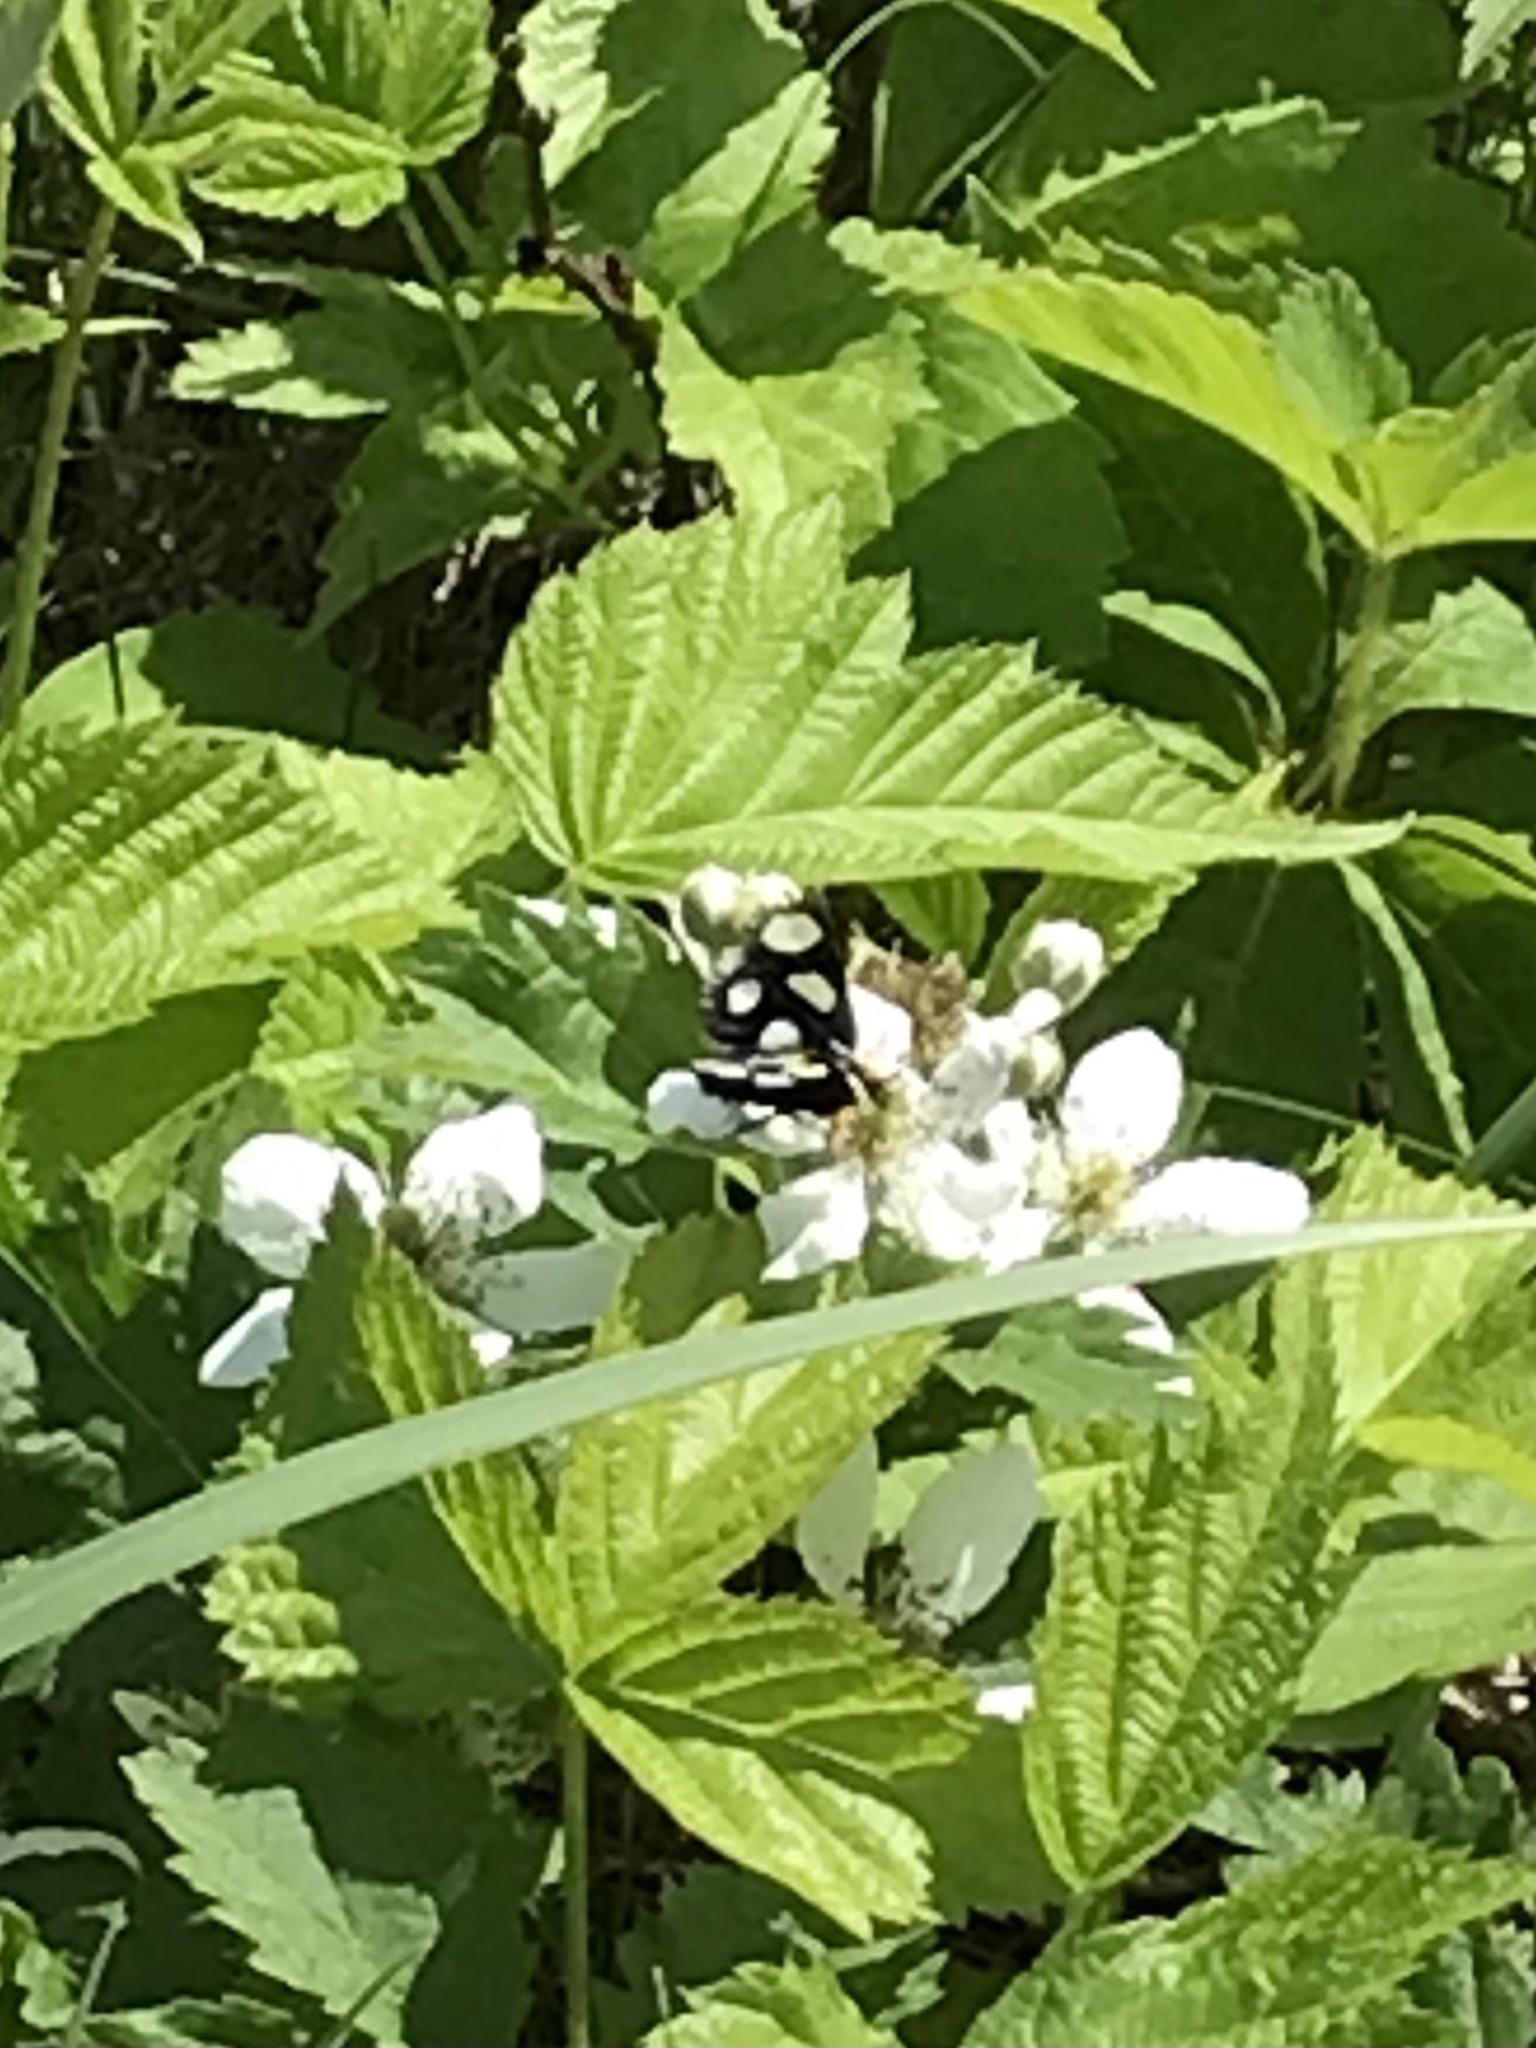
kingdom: Animalia
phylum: Arthropoda
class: Insecta
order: Lepidoptera
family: Noctuidae
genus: Alypia
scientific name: Alypia octomaculata
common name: Eight-spotted forester
